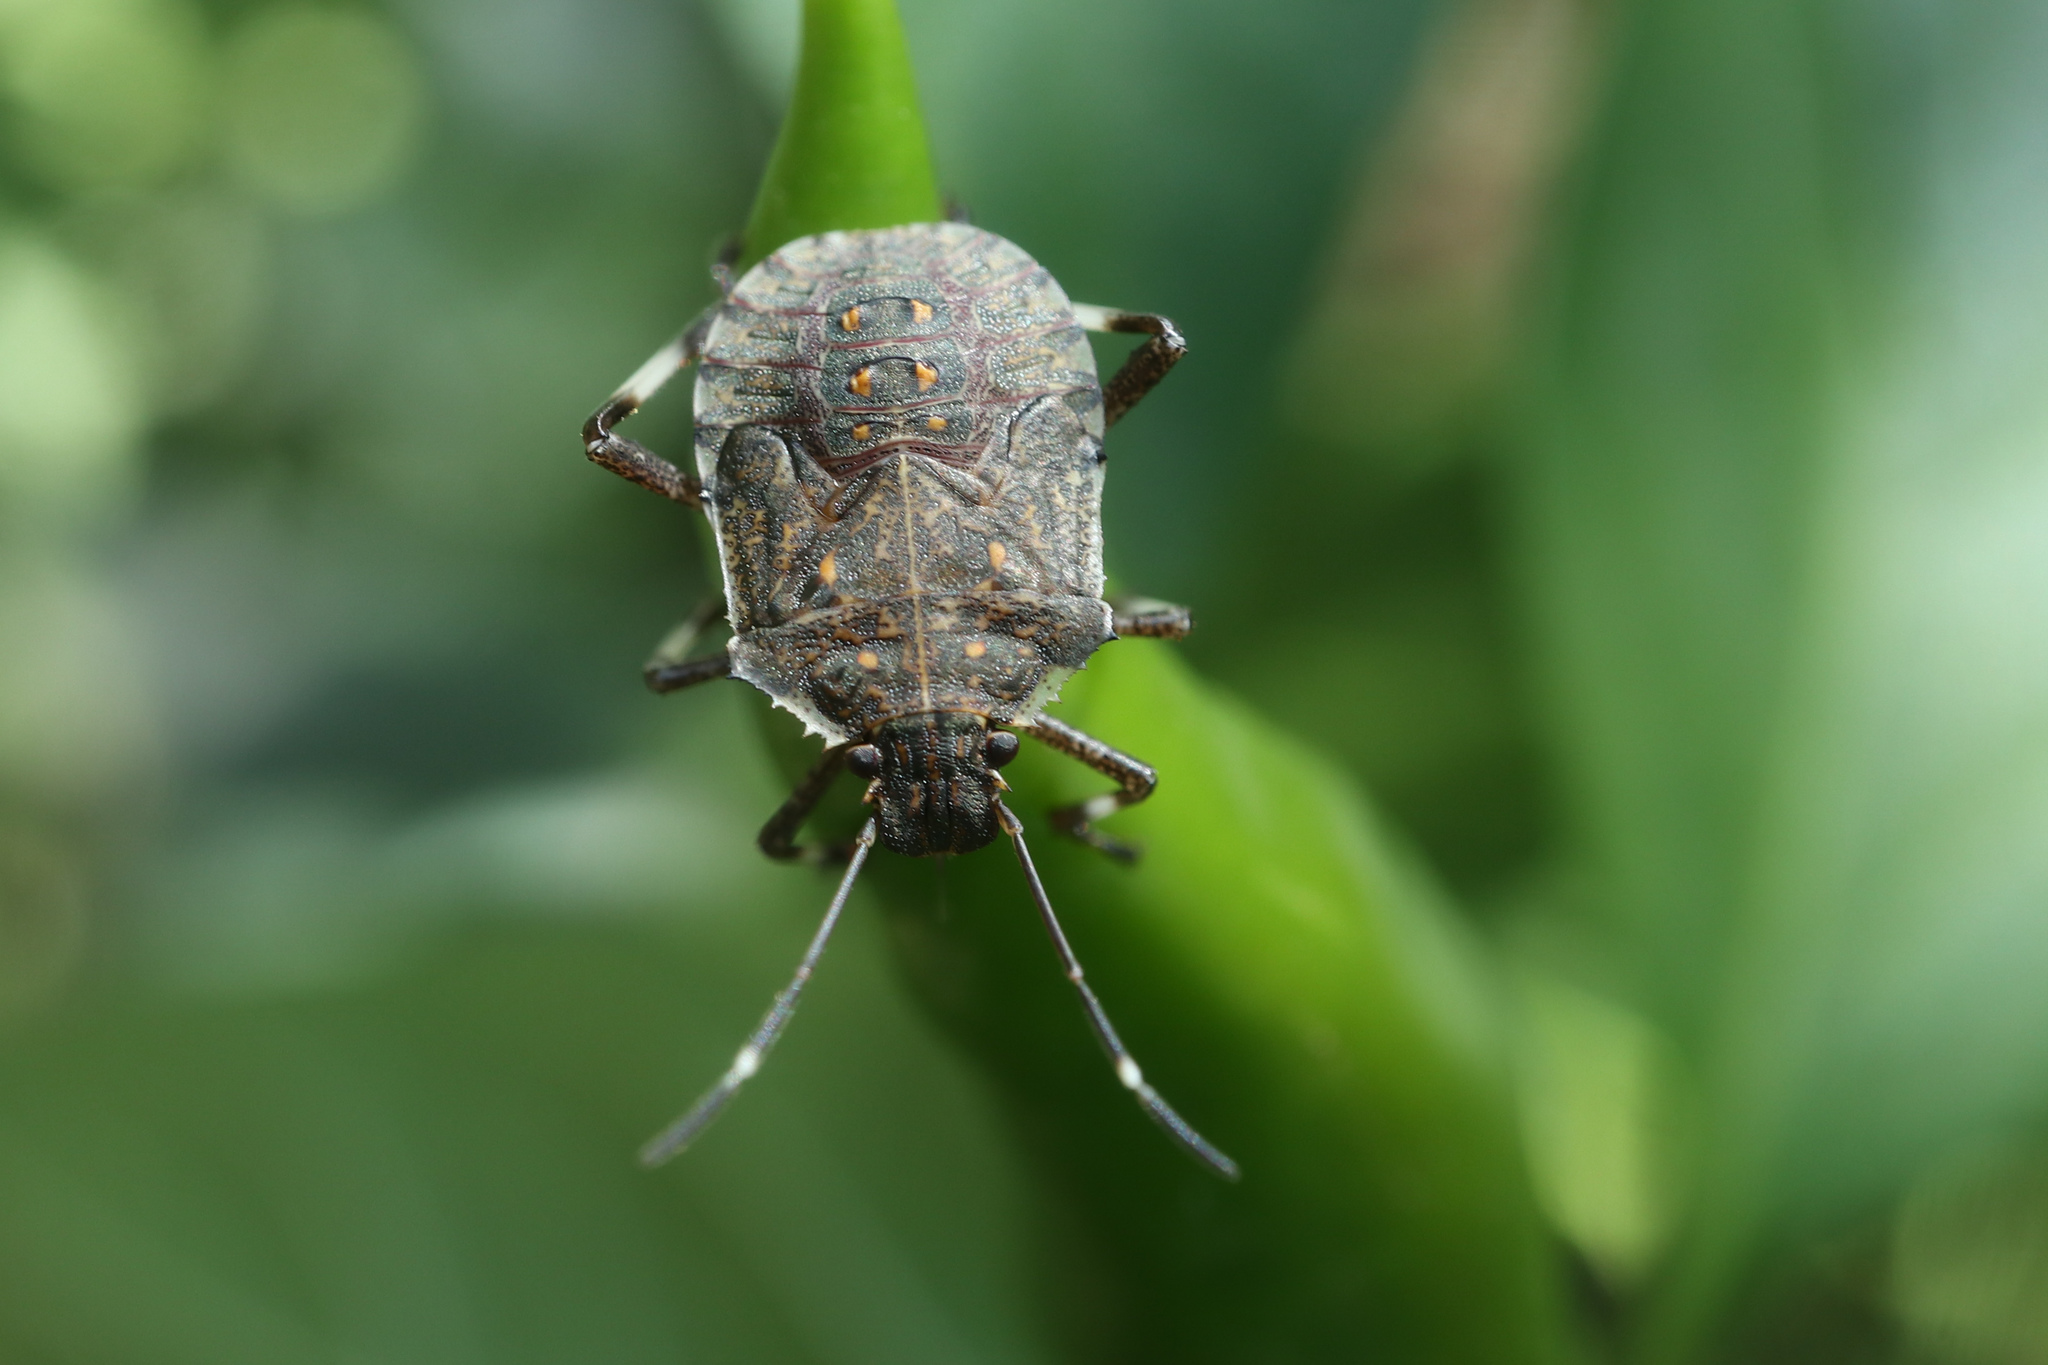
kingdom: Animalia
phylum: Arthropoda
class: Insecta
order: Hemiptera
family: Pentatomidae
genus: Halyomorpha
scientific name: Halyomorpha halys
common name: Brown marmorated stink bug
